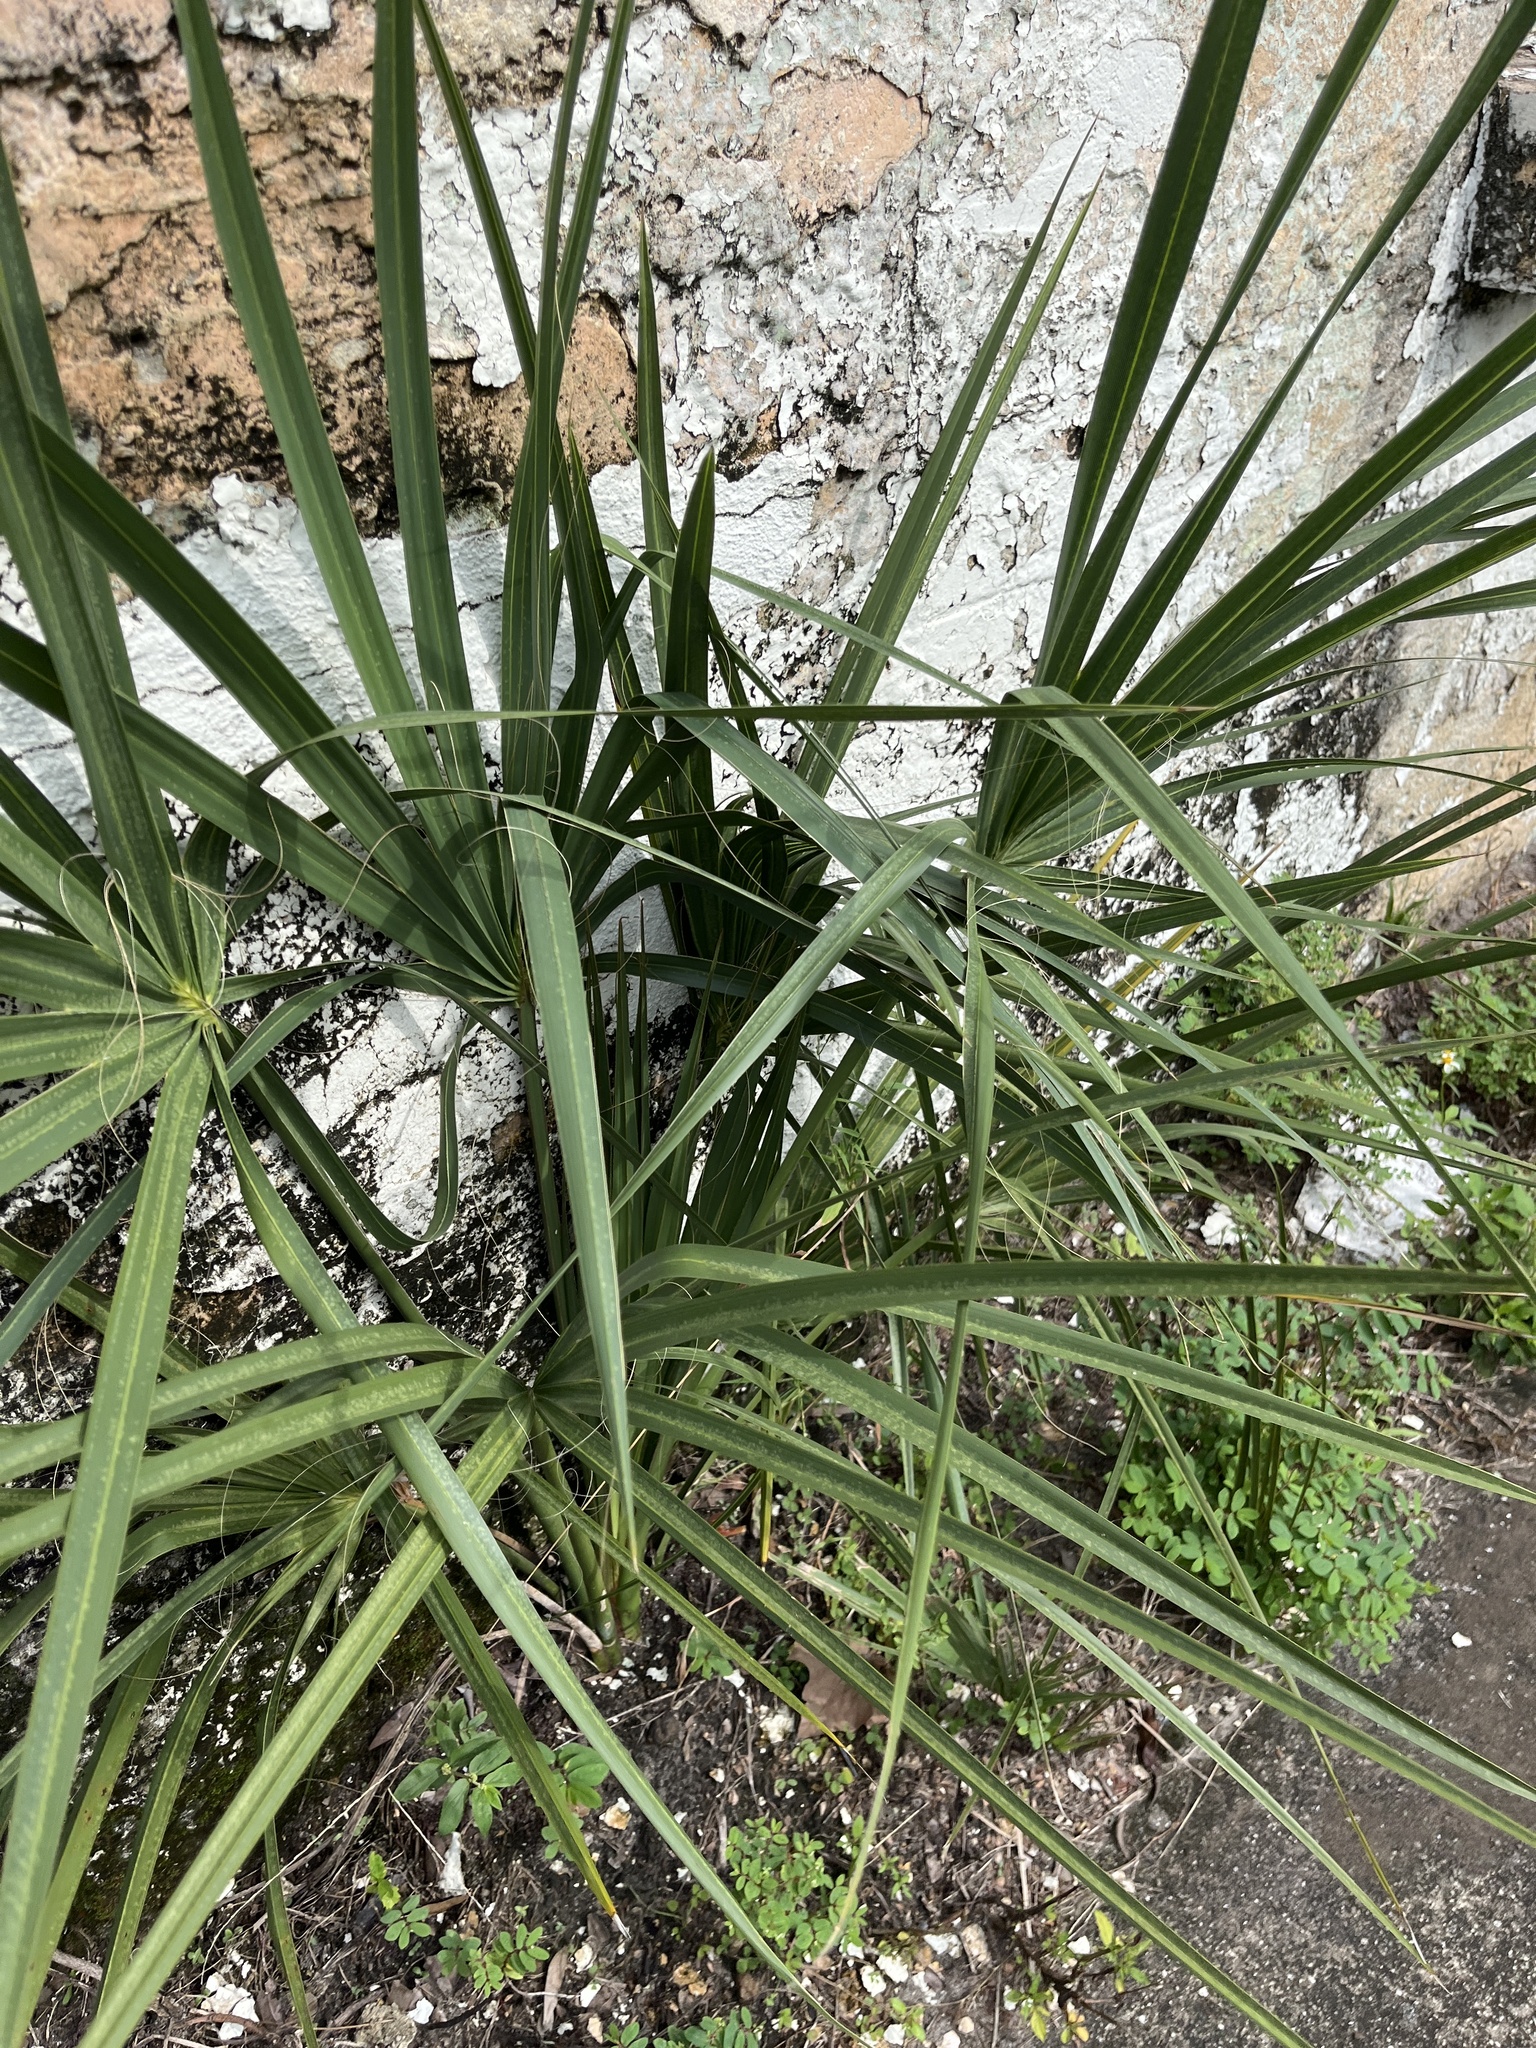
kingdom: Plantae
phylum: Tracheophyta
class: Liliopsida
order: Arecales
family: Arecaceae
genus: Sabal
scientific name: Sabal palmetto
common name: Blue palmetto
